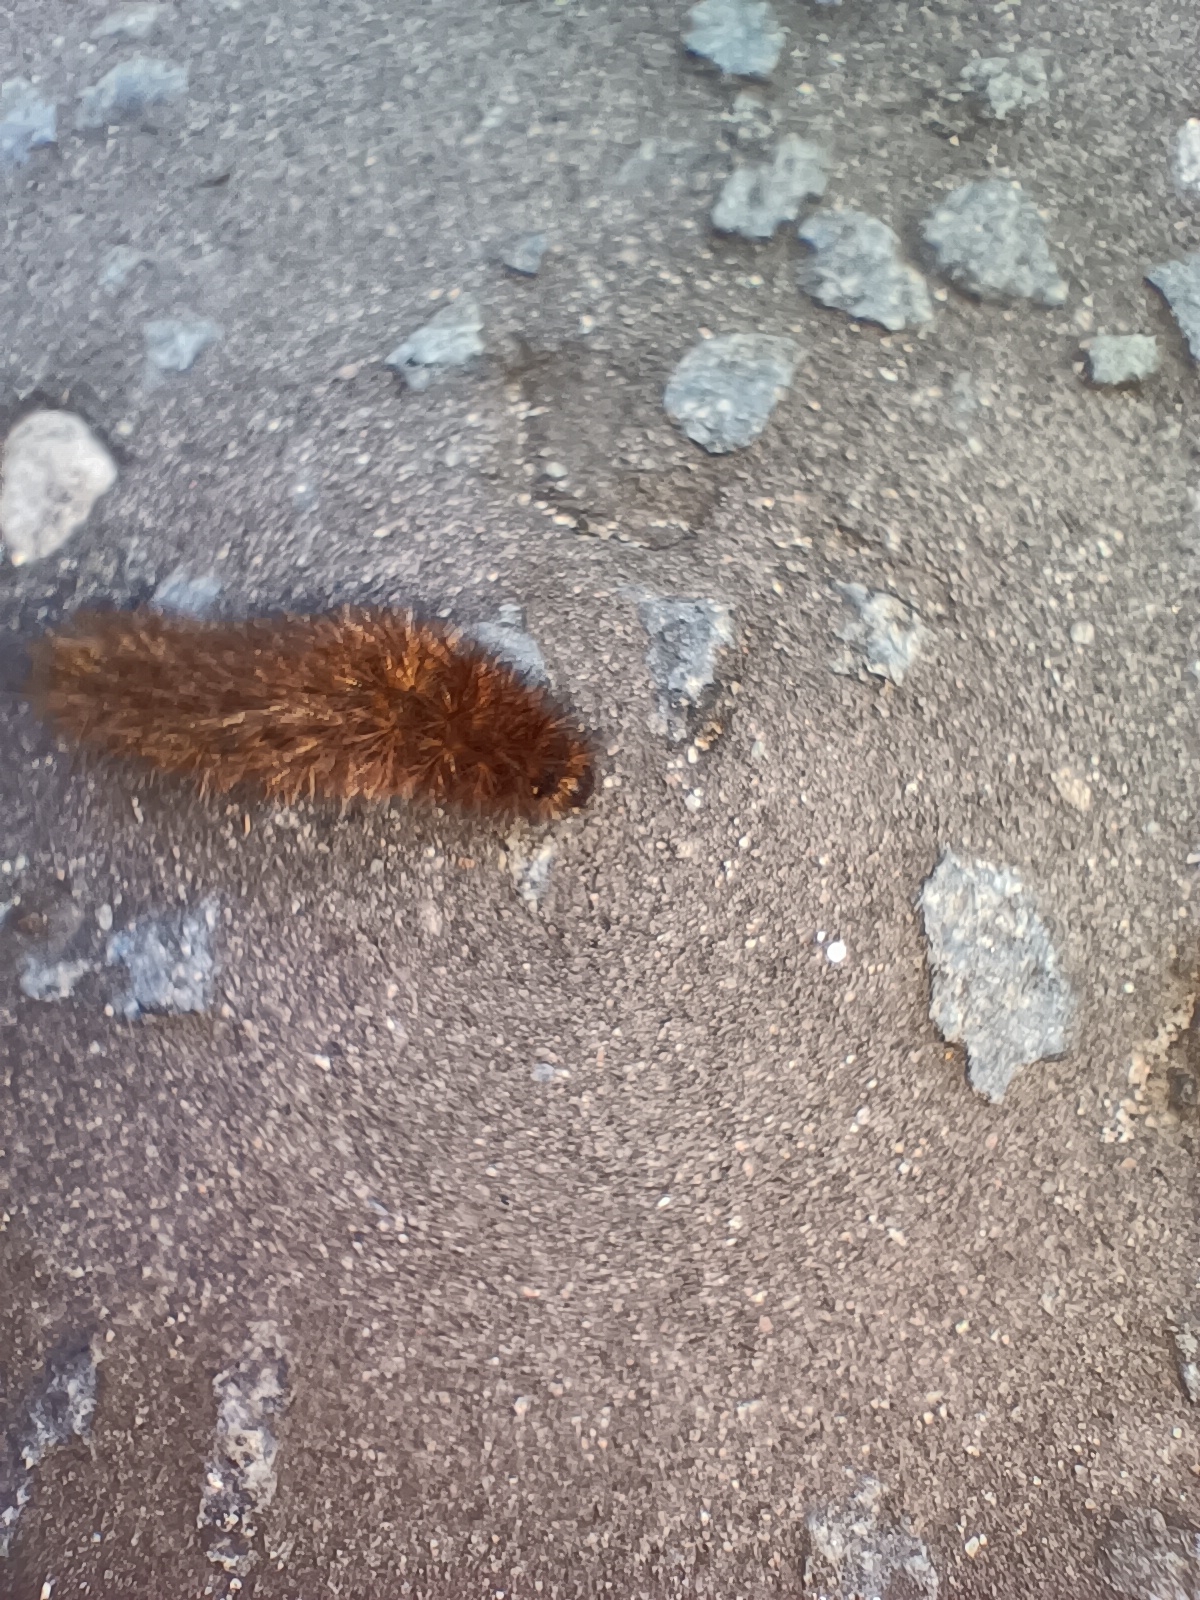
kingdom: Animalia
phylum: Arthropoda
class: Insecta
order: Lepidoptera
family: Erebidae
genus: Phragmatobia
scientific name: Phragmatobia fuliginosa
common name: Ruby tiger
